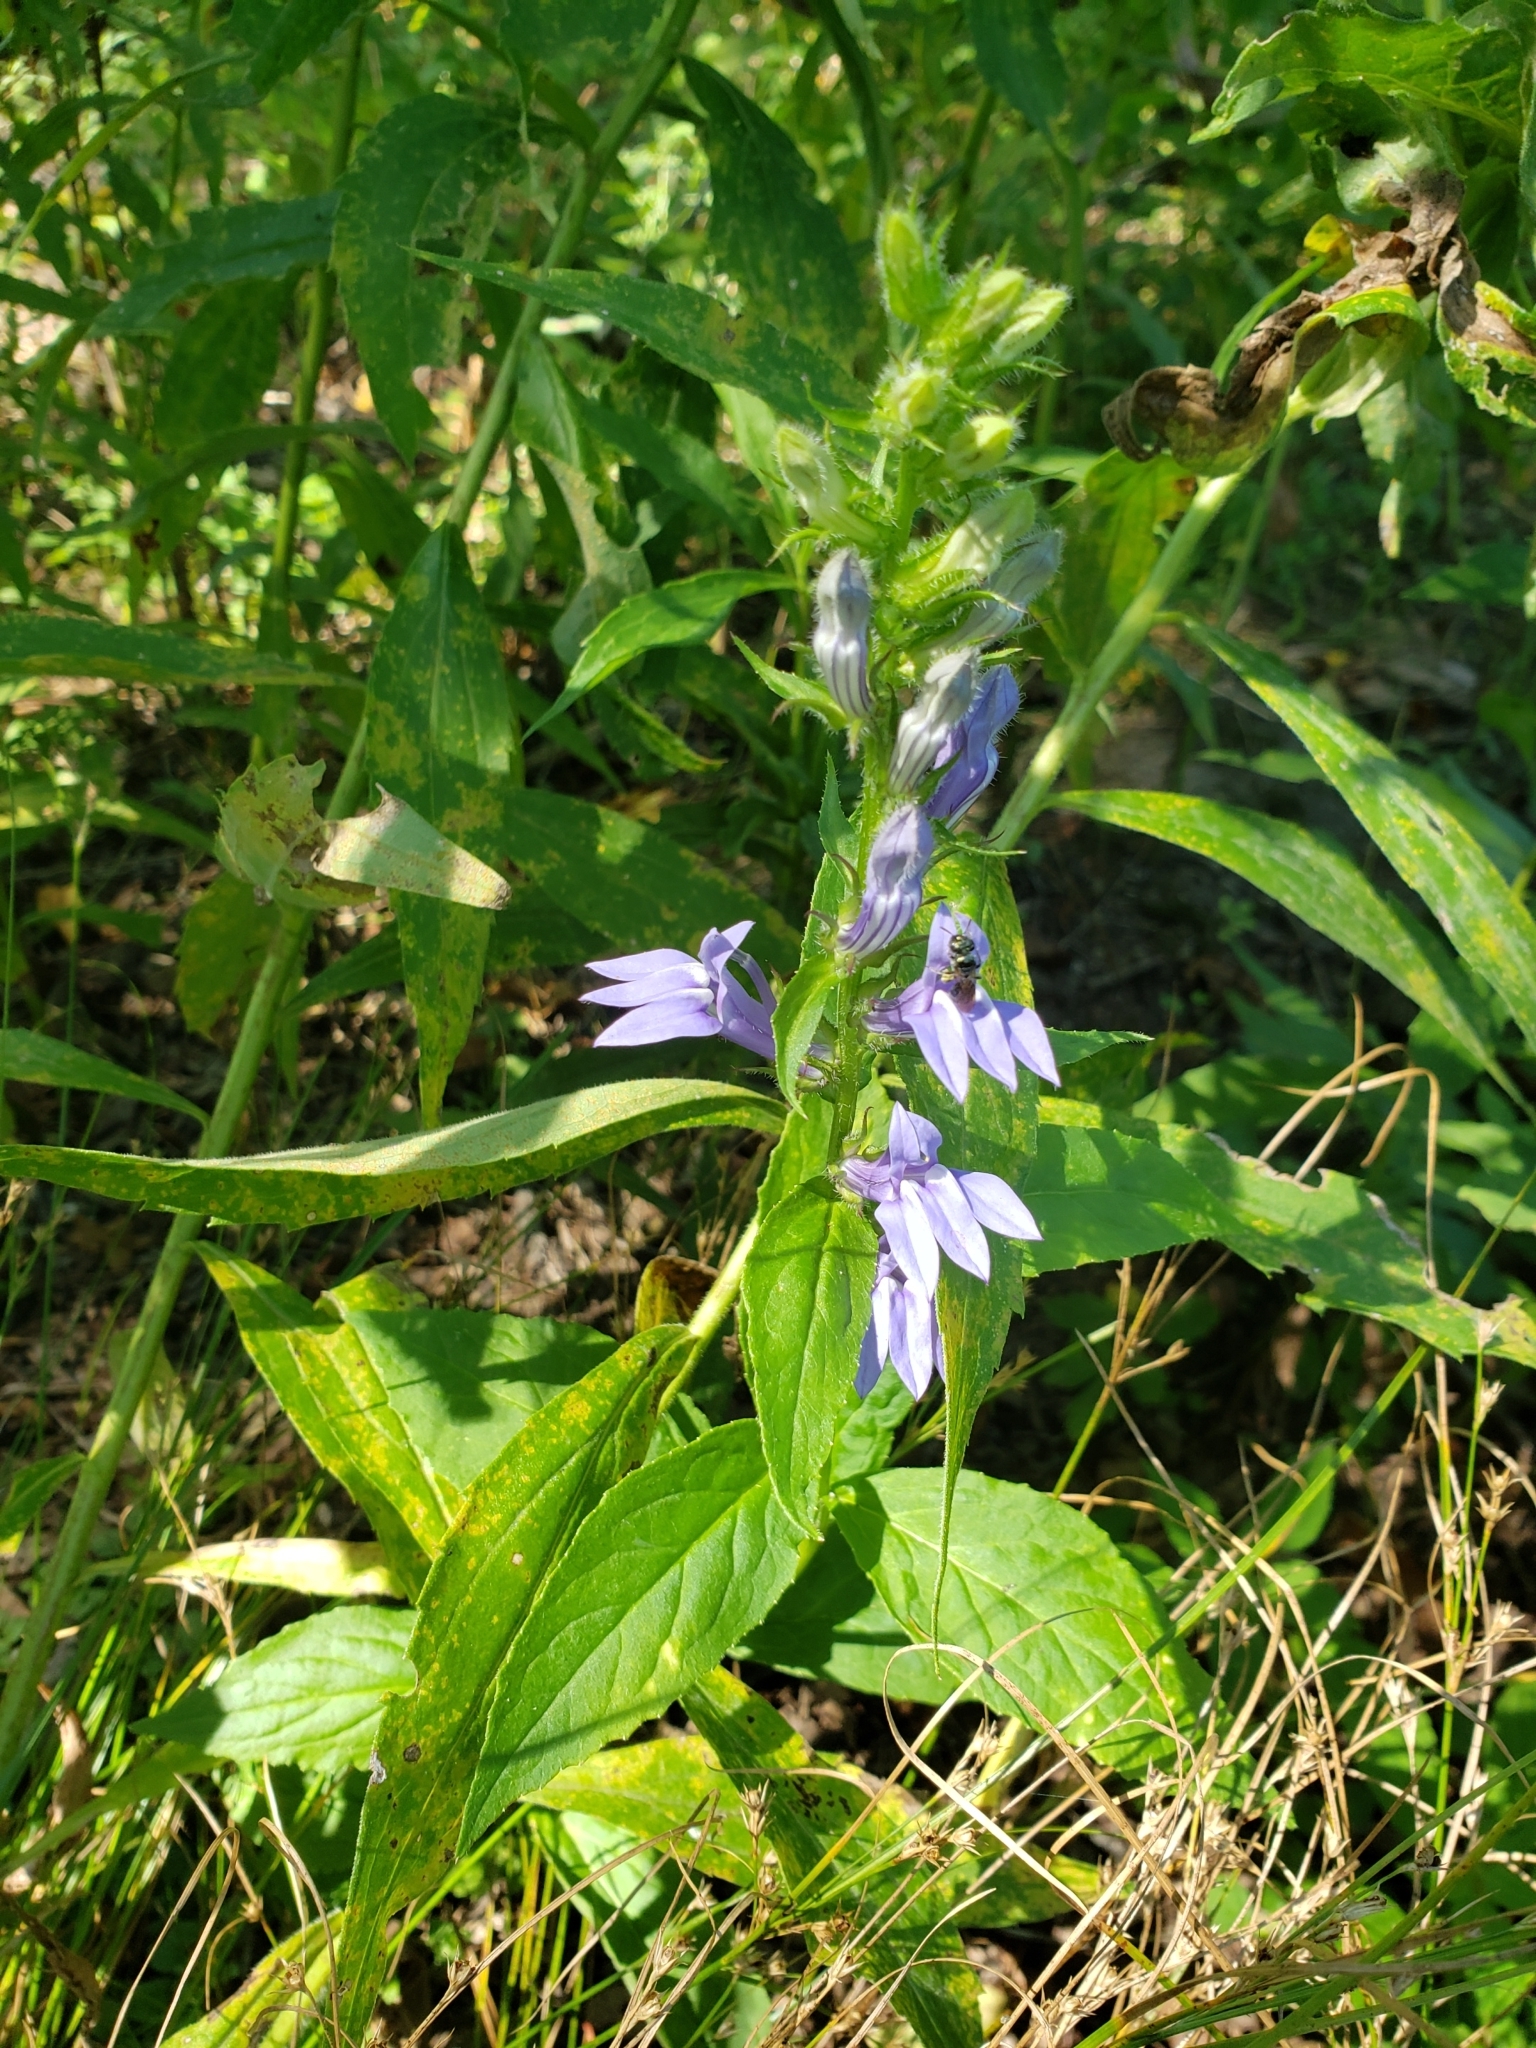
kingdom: Plantae
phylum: Tracheophyta
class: Magnoliopsida
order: Asterales
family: Campanulaceae
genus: Lobelia
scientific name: Lobelia siphilitica
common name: Great lobelia
